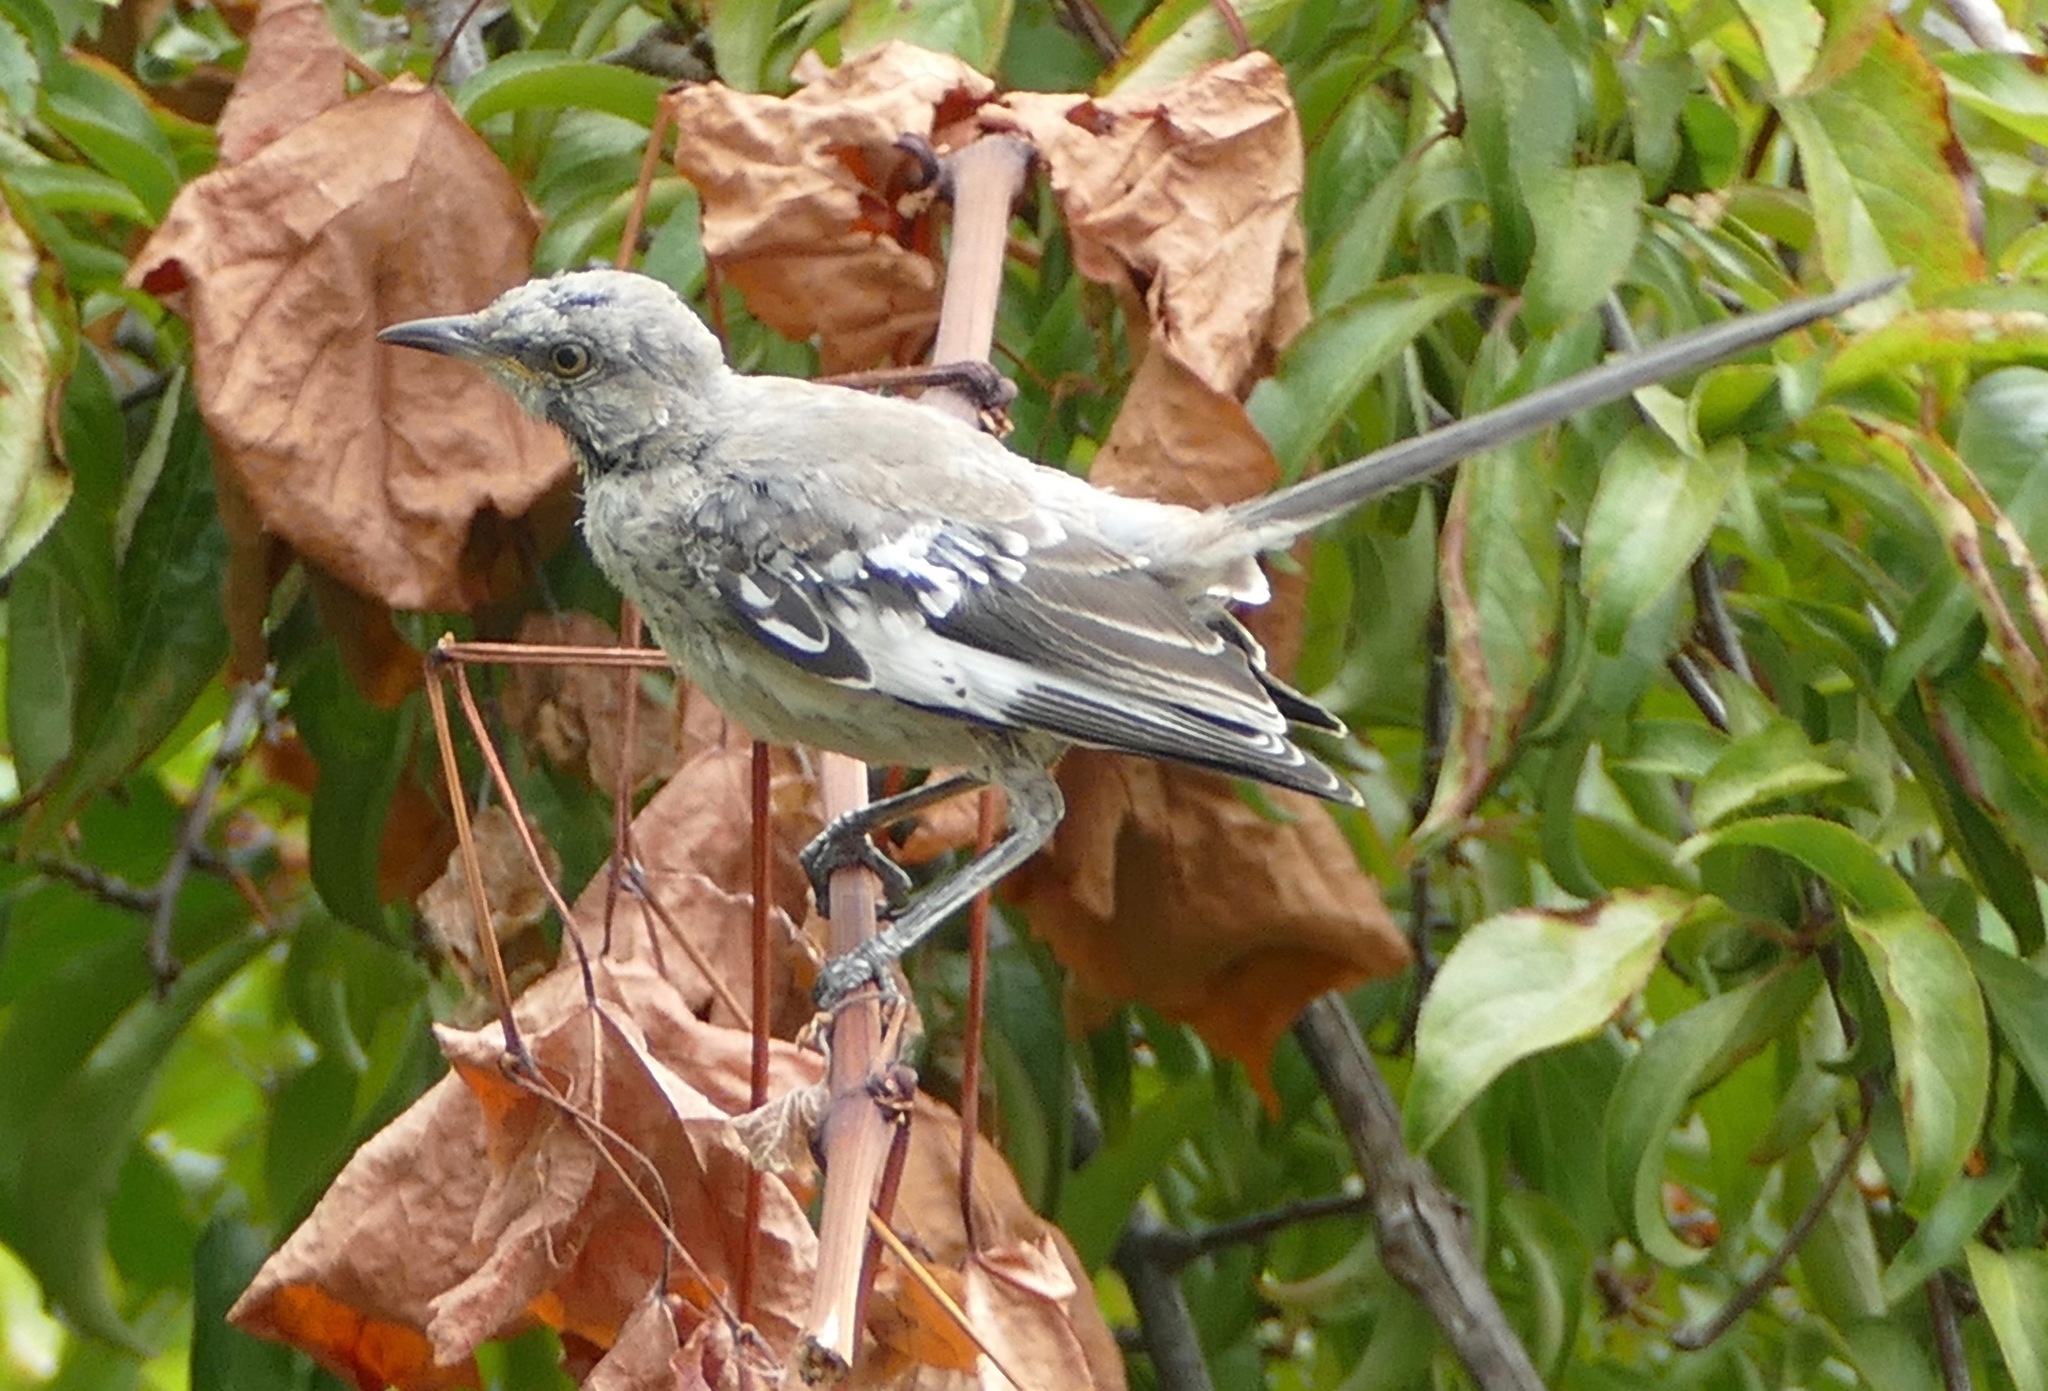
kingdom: Animalia
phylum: Chordata
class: Aves
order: Passeriformes
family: Mimidae
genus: Mimus
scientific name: Mimus polyglottos
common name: Northern mockingbird
